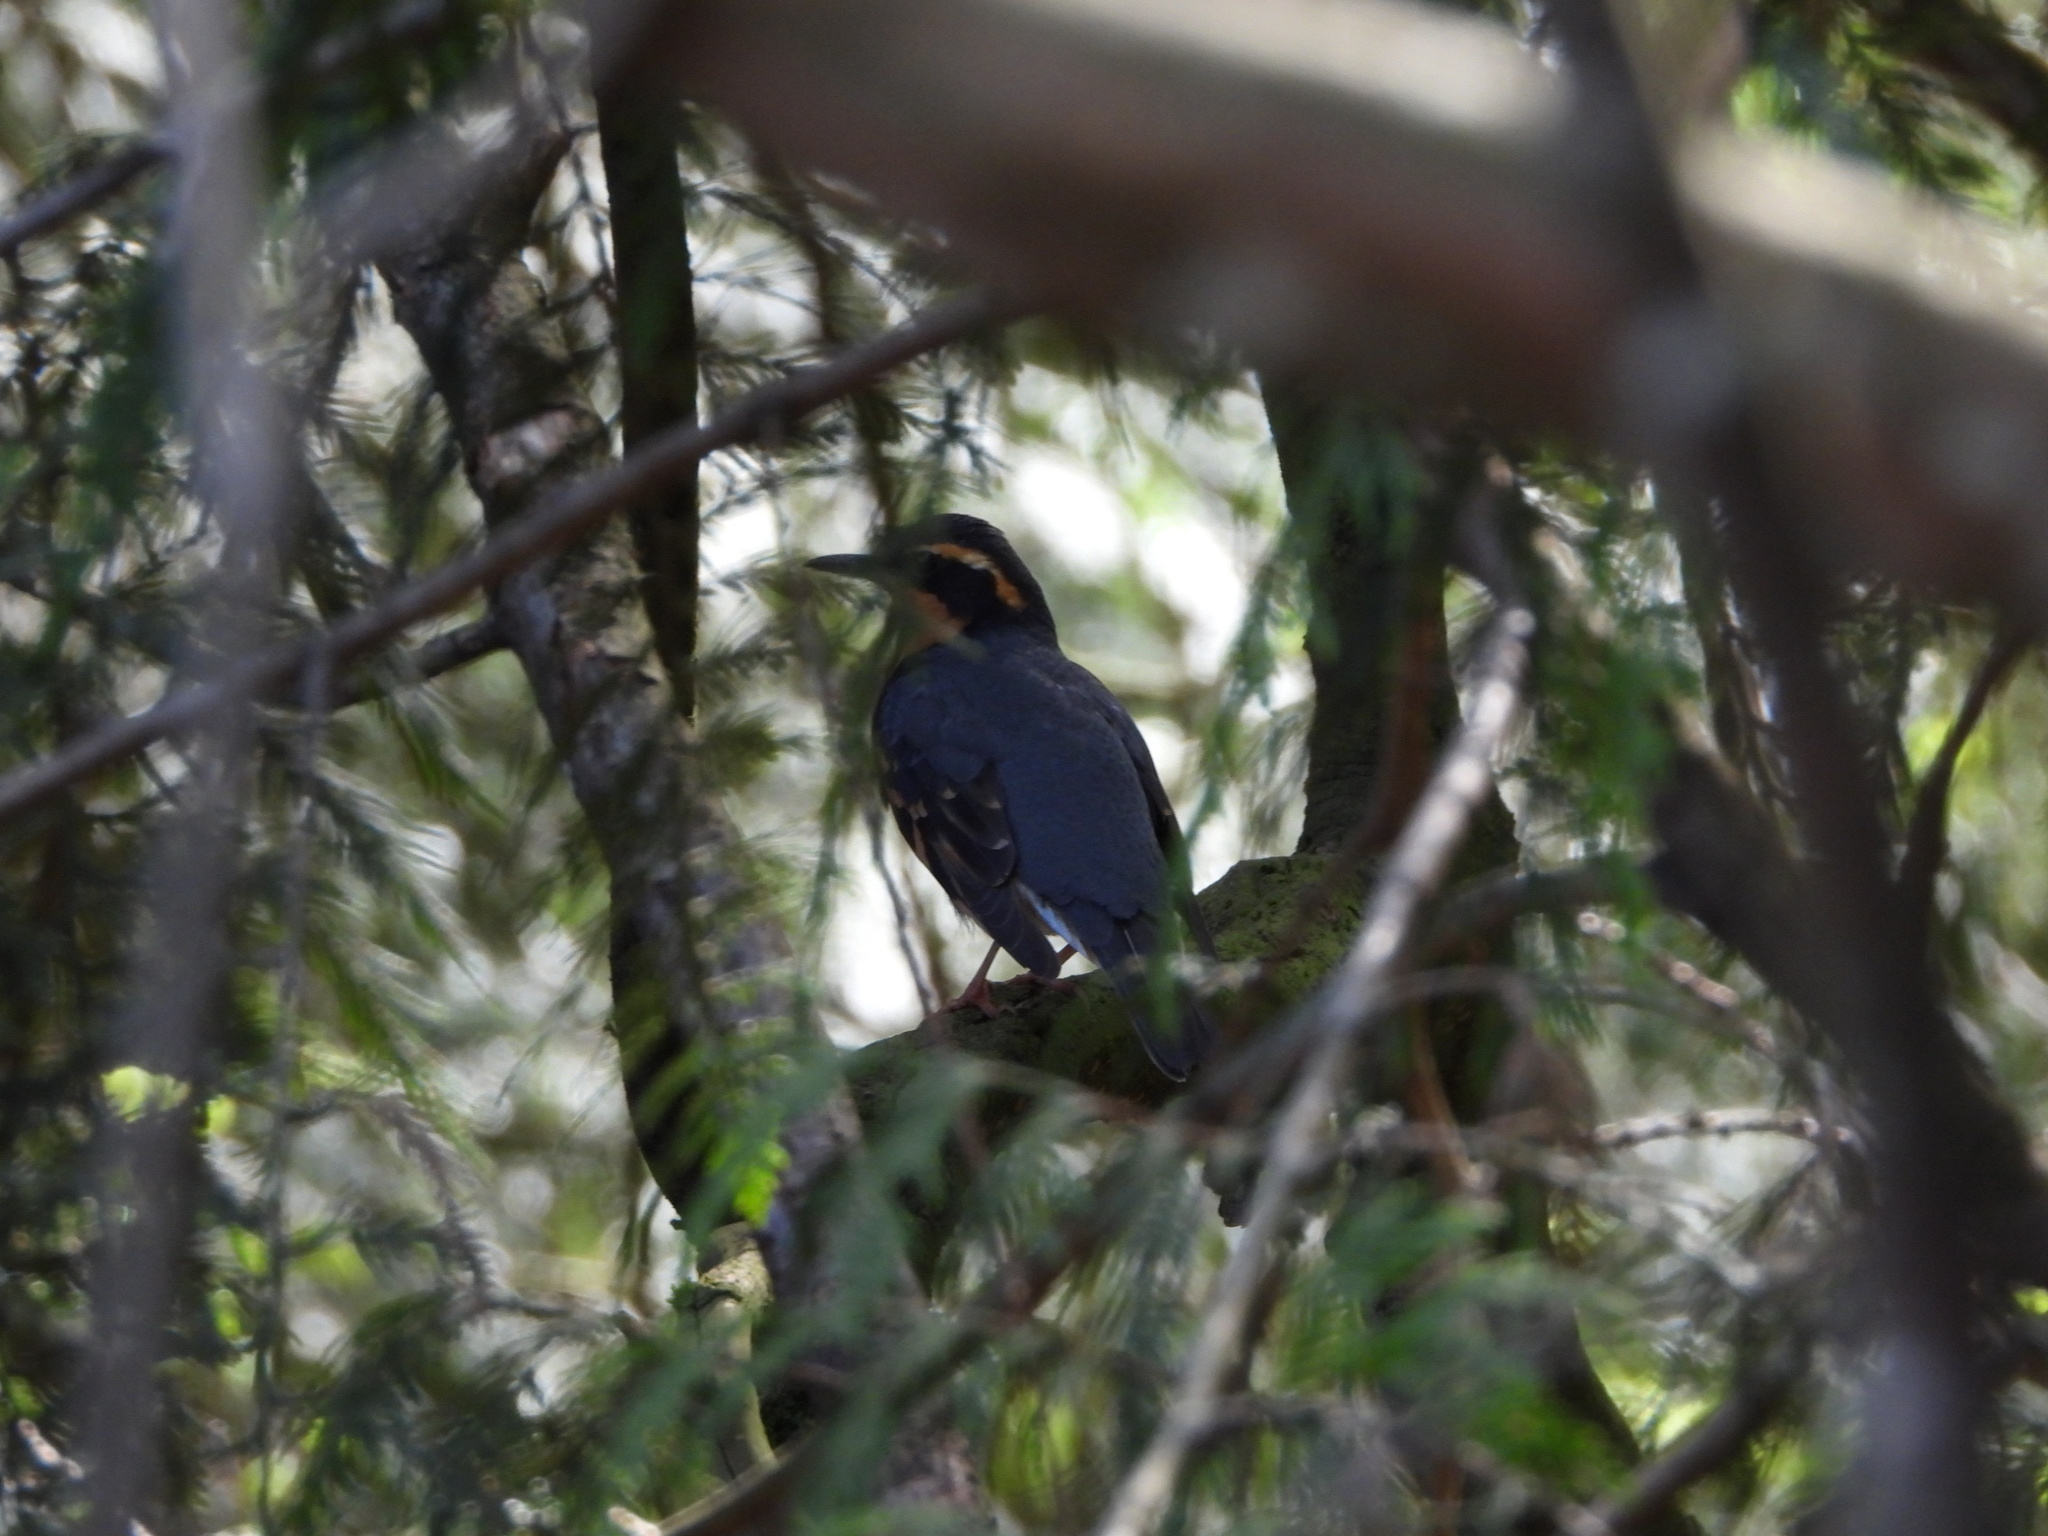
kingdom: Animalia
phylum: Chordata
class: Aves
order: Passeriformes
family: Turdidae
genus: Ixoreus
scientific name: Ixoreus naevius
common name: Varied thrush
